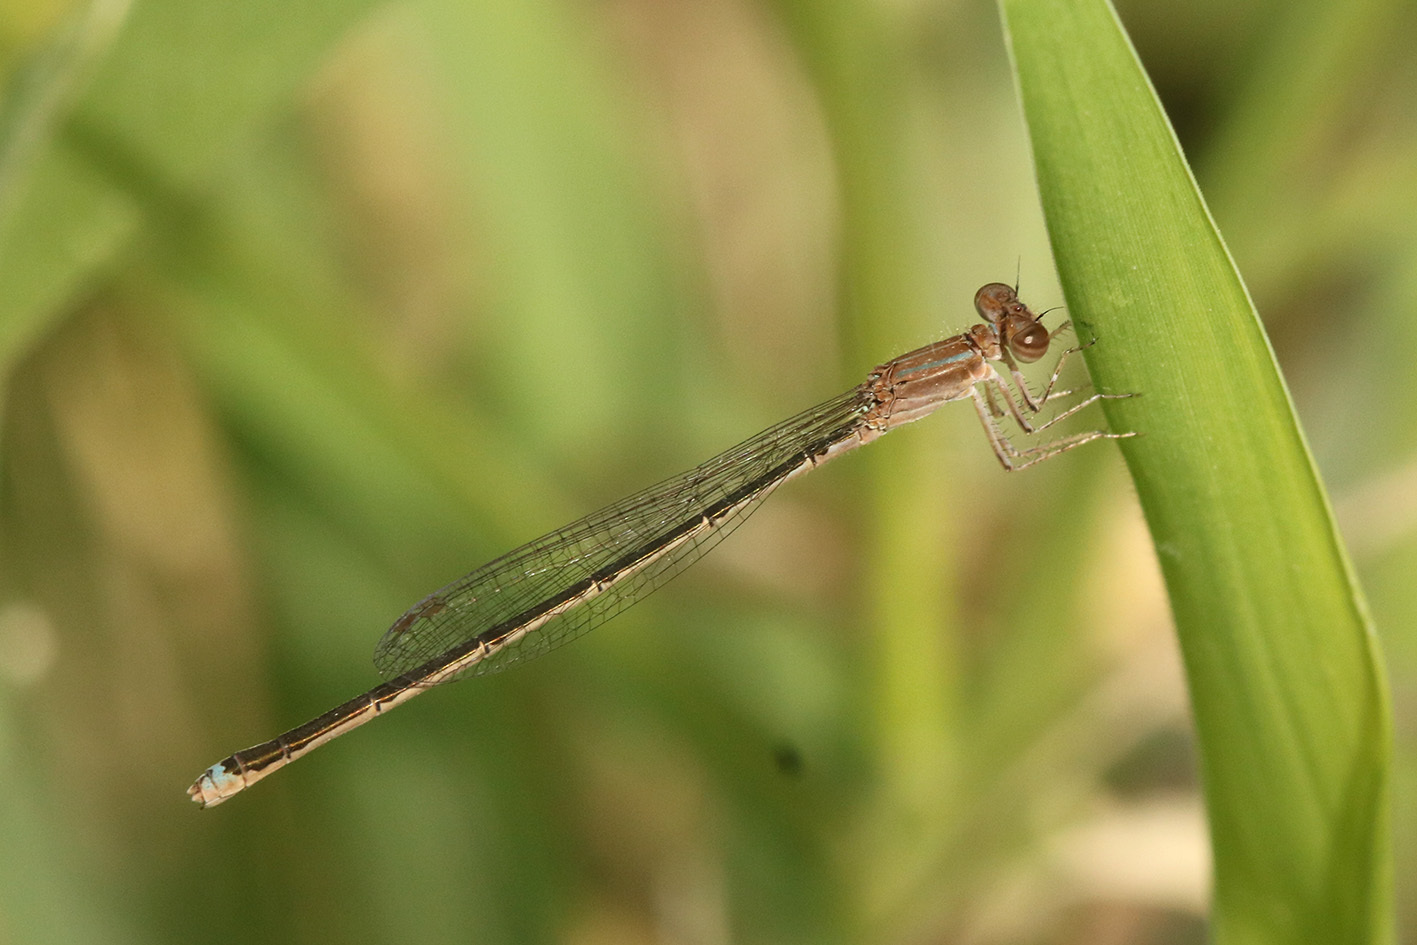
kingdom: Animalia
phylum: Arthropoda
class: Insecta
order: Odonata
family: Coenagrionidae
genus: Argentagrion
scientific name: Argentagrion ambiguum
